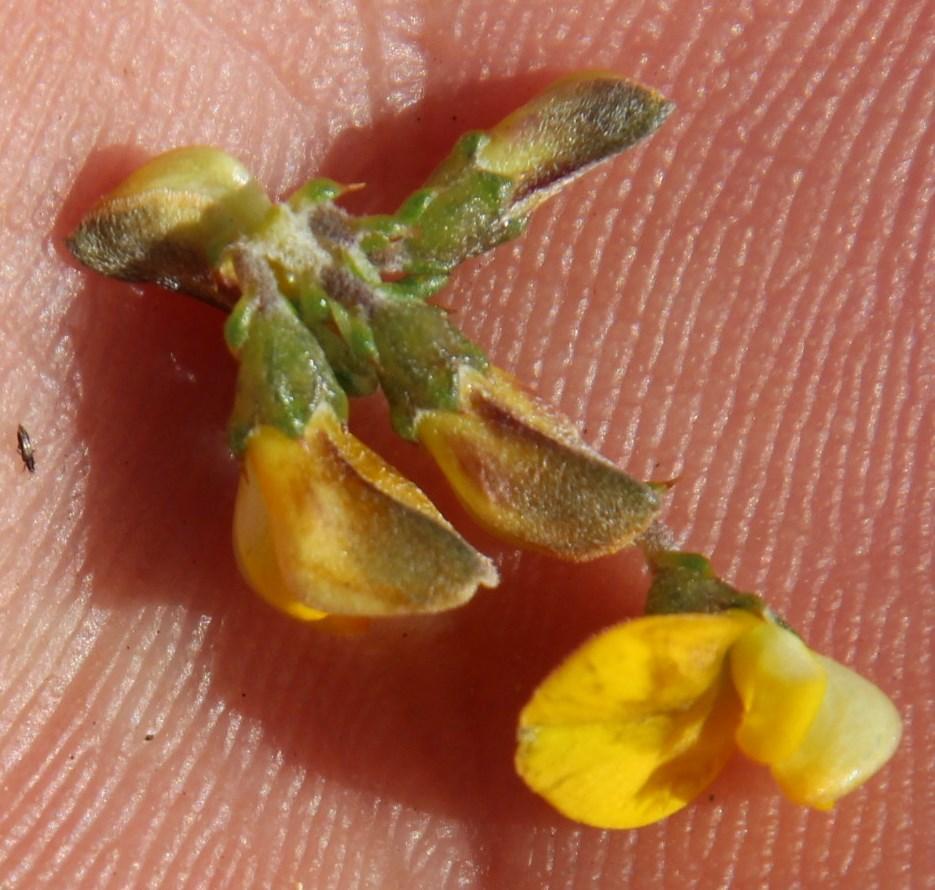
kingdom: Plantae
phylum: Tracheophyta
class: Magnoliopsida
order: Fabales
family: Fabaceae
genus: Aspalathus
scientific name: Aspalathus divaricata
